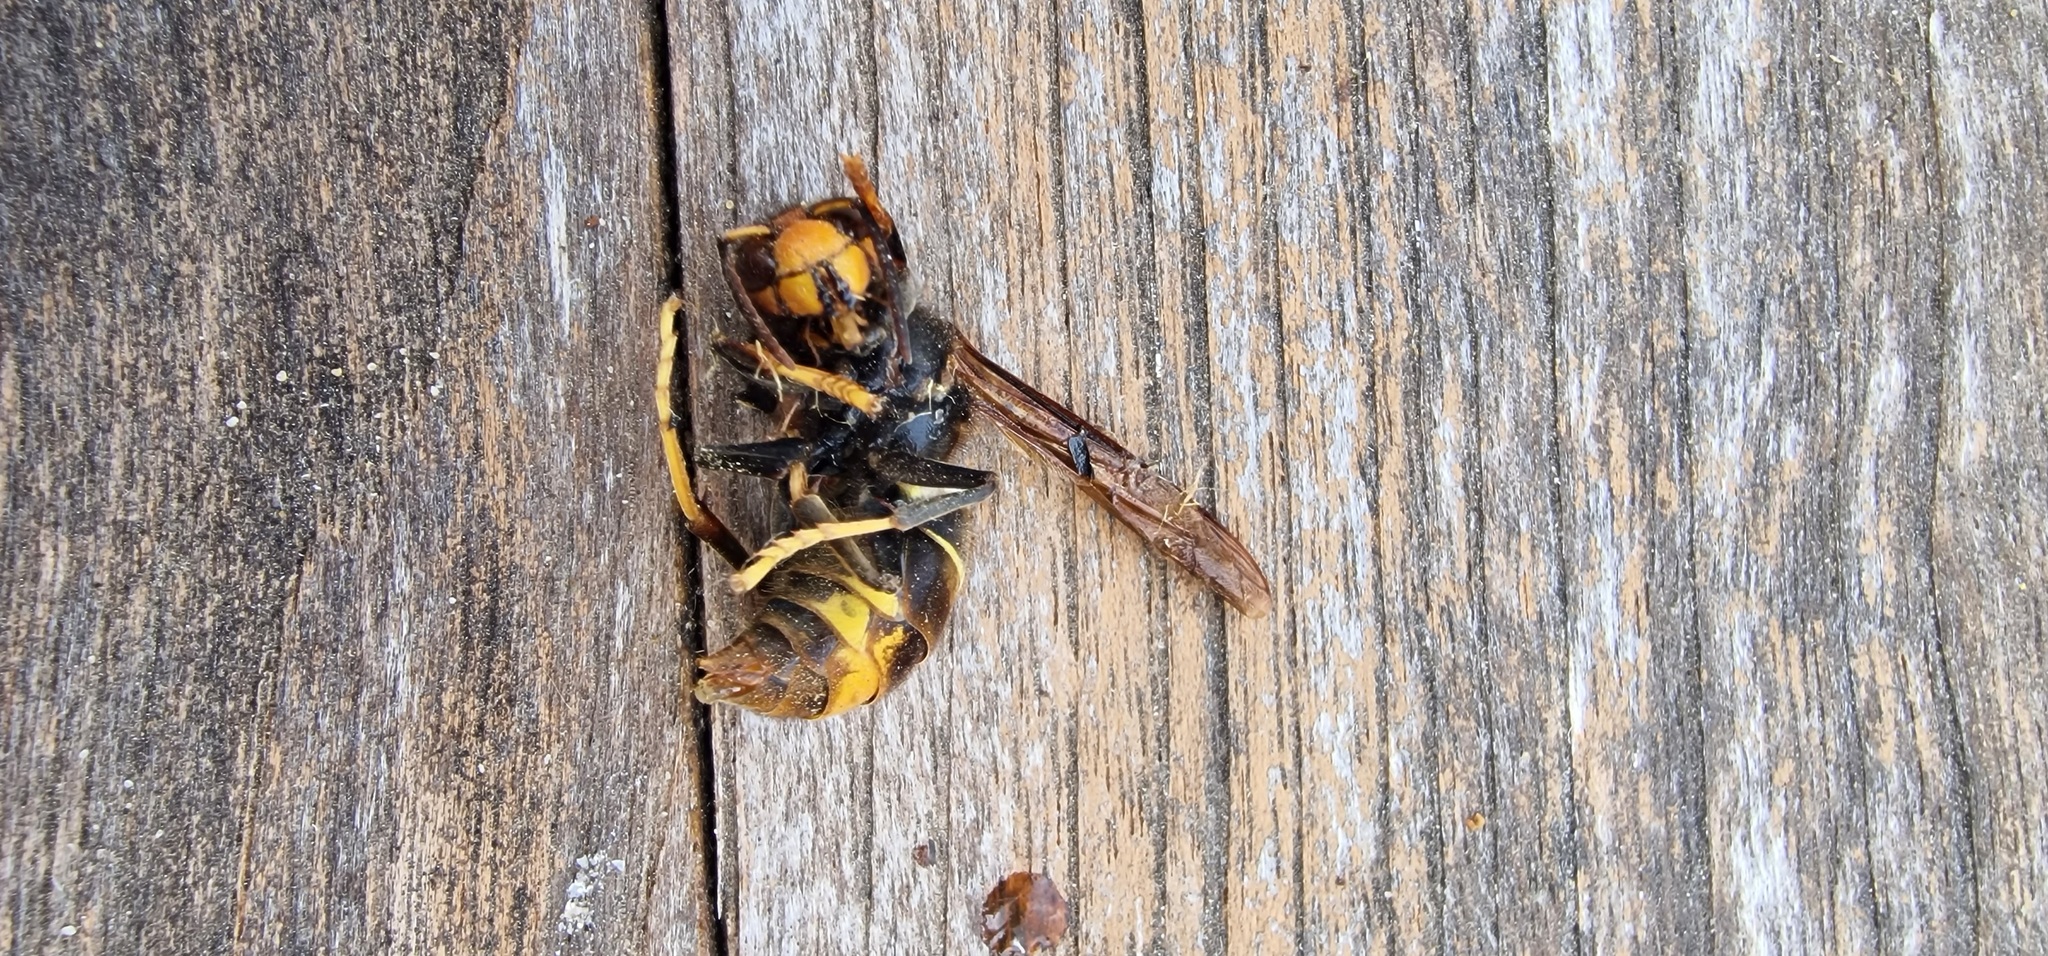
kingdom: Animalia
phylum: Arthropoda
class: Insecta
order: Hymenoptera
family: Vespidae
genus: Vespa
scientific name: Vespa velutina
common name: Asian hornet
